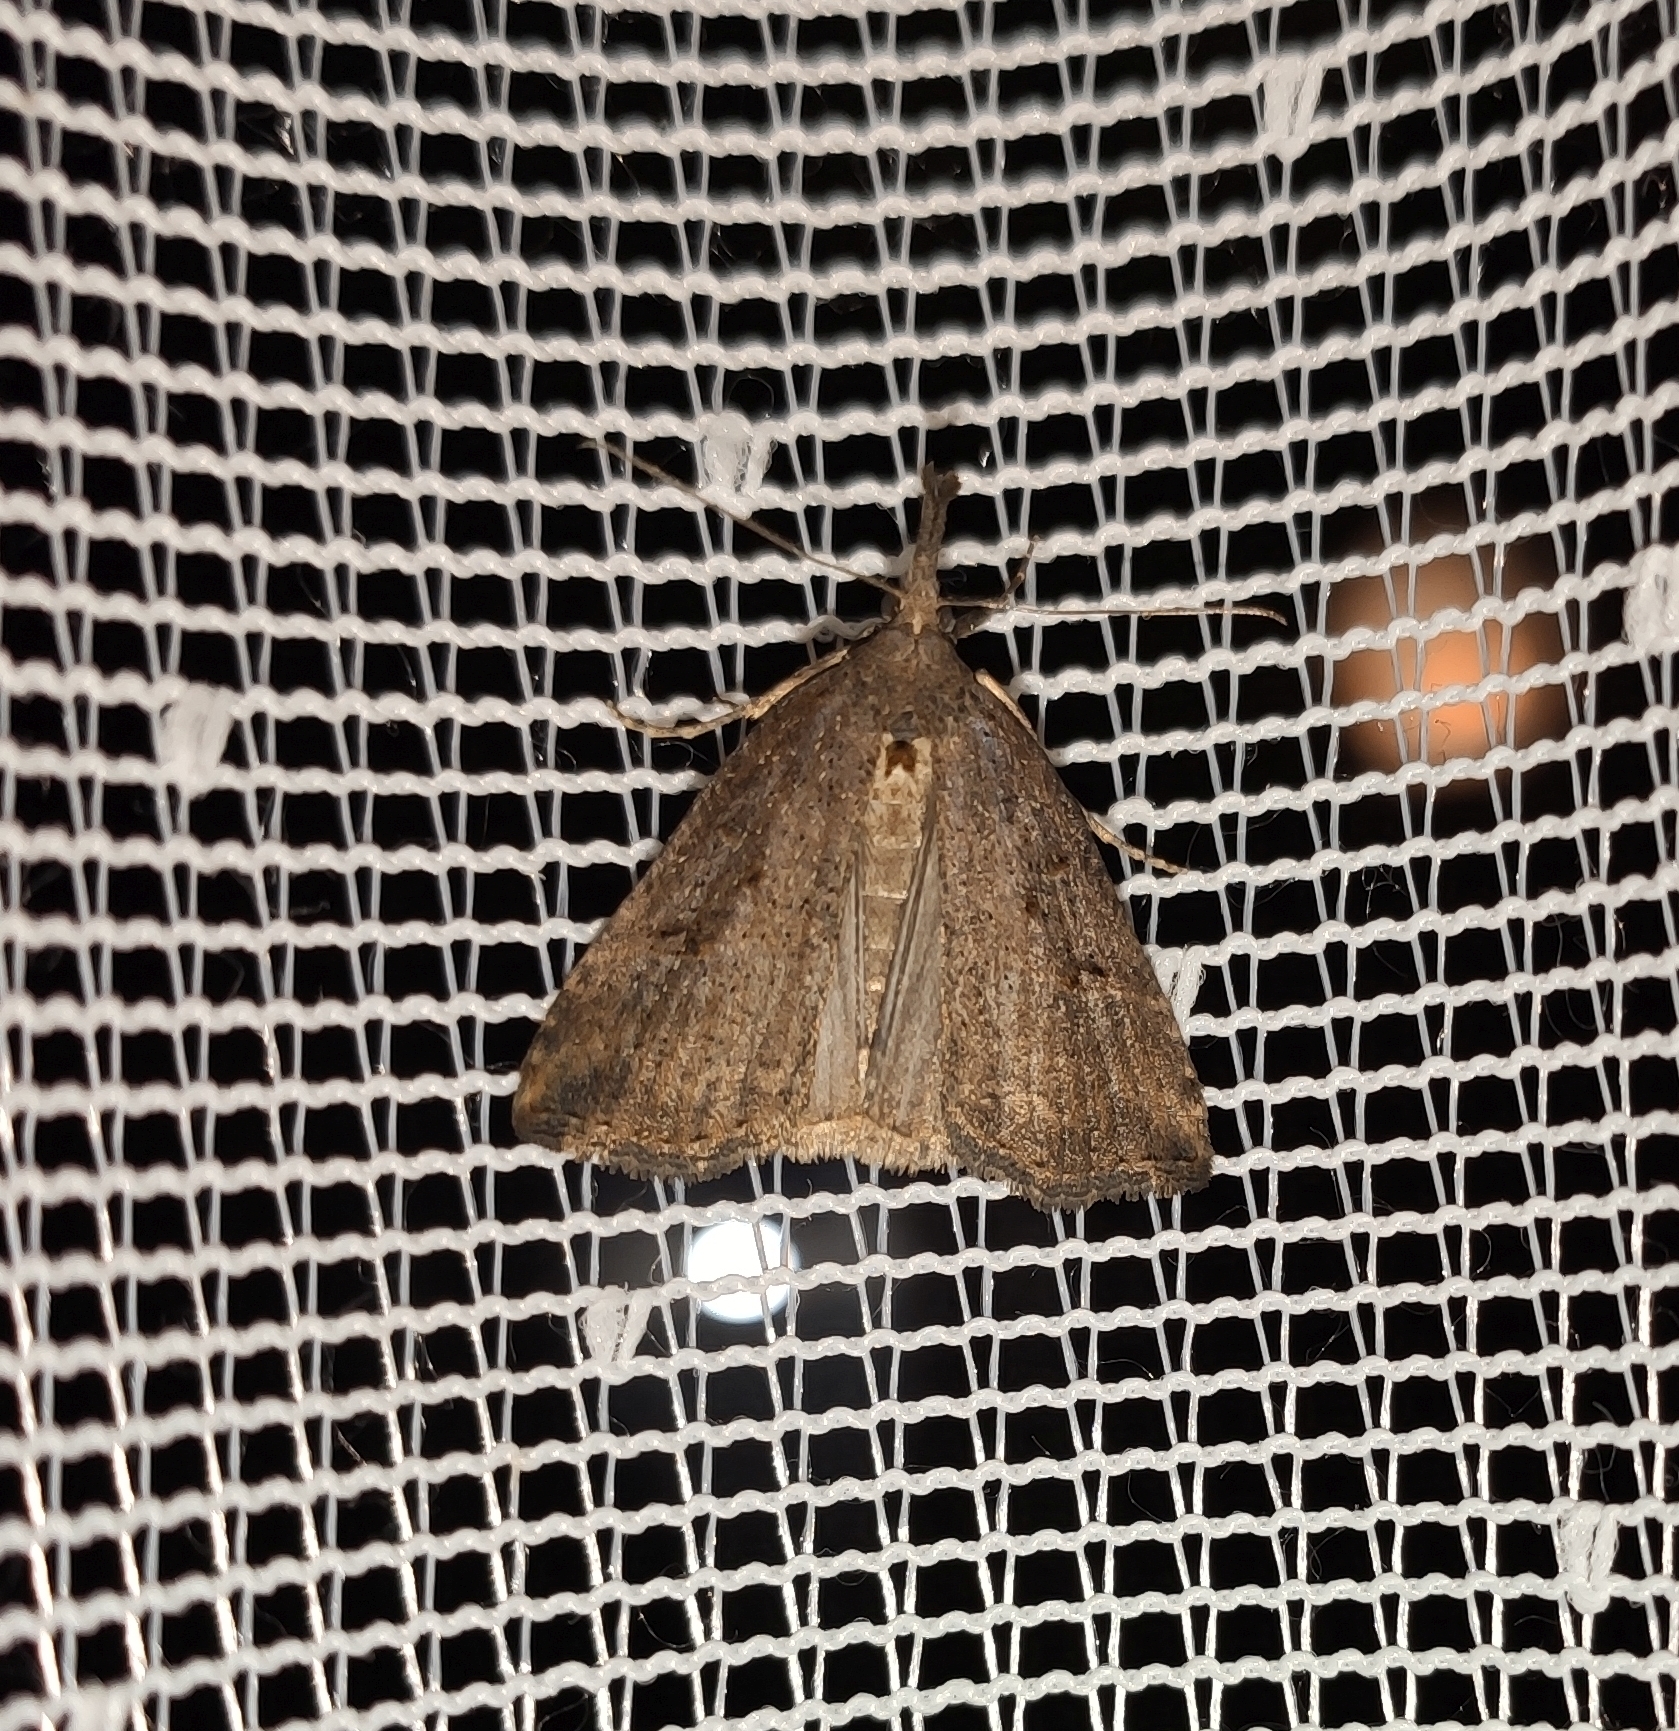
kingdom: Animalia
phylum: Arthropoda
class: Insecta
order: Lepidoptera
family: Erebidae
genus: Hypena
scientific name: Hypena rostralis
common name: Buttoned snout
